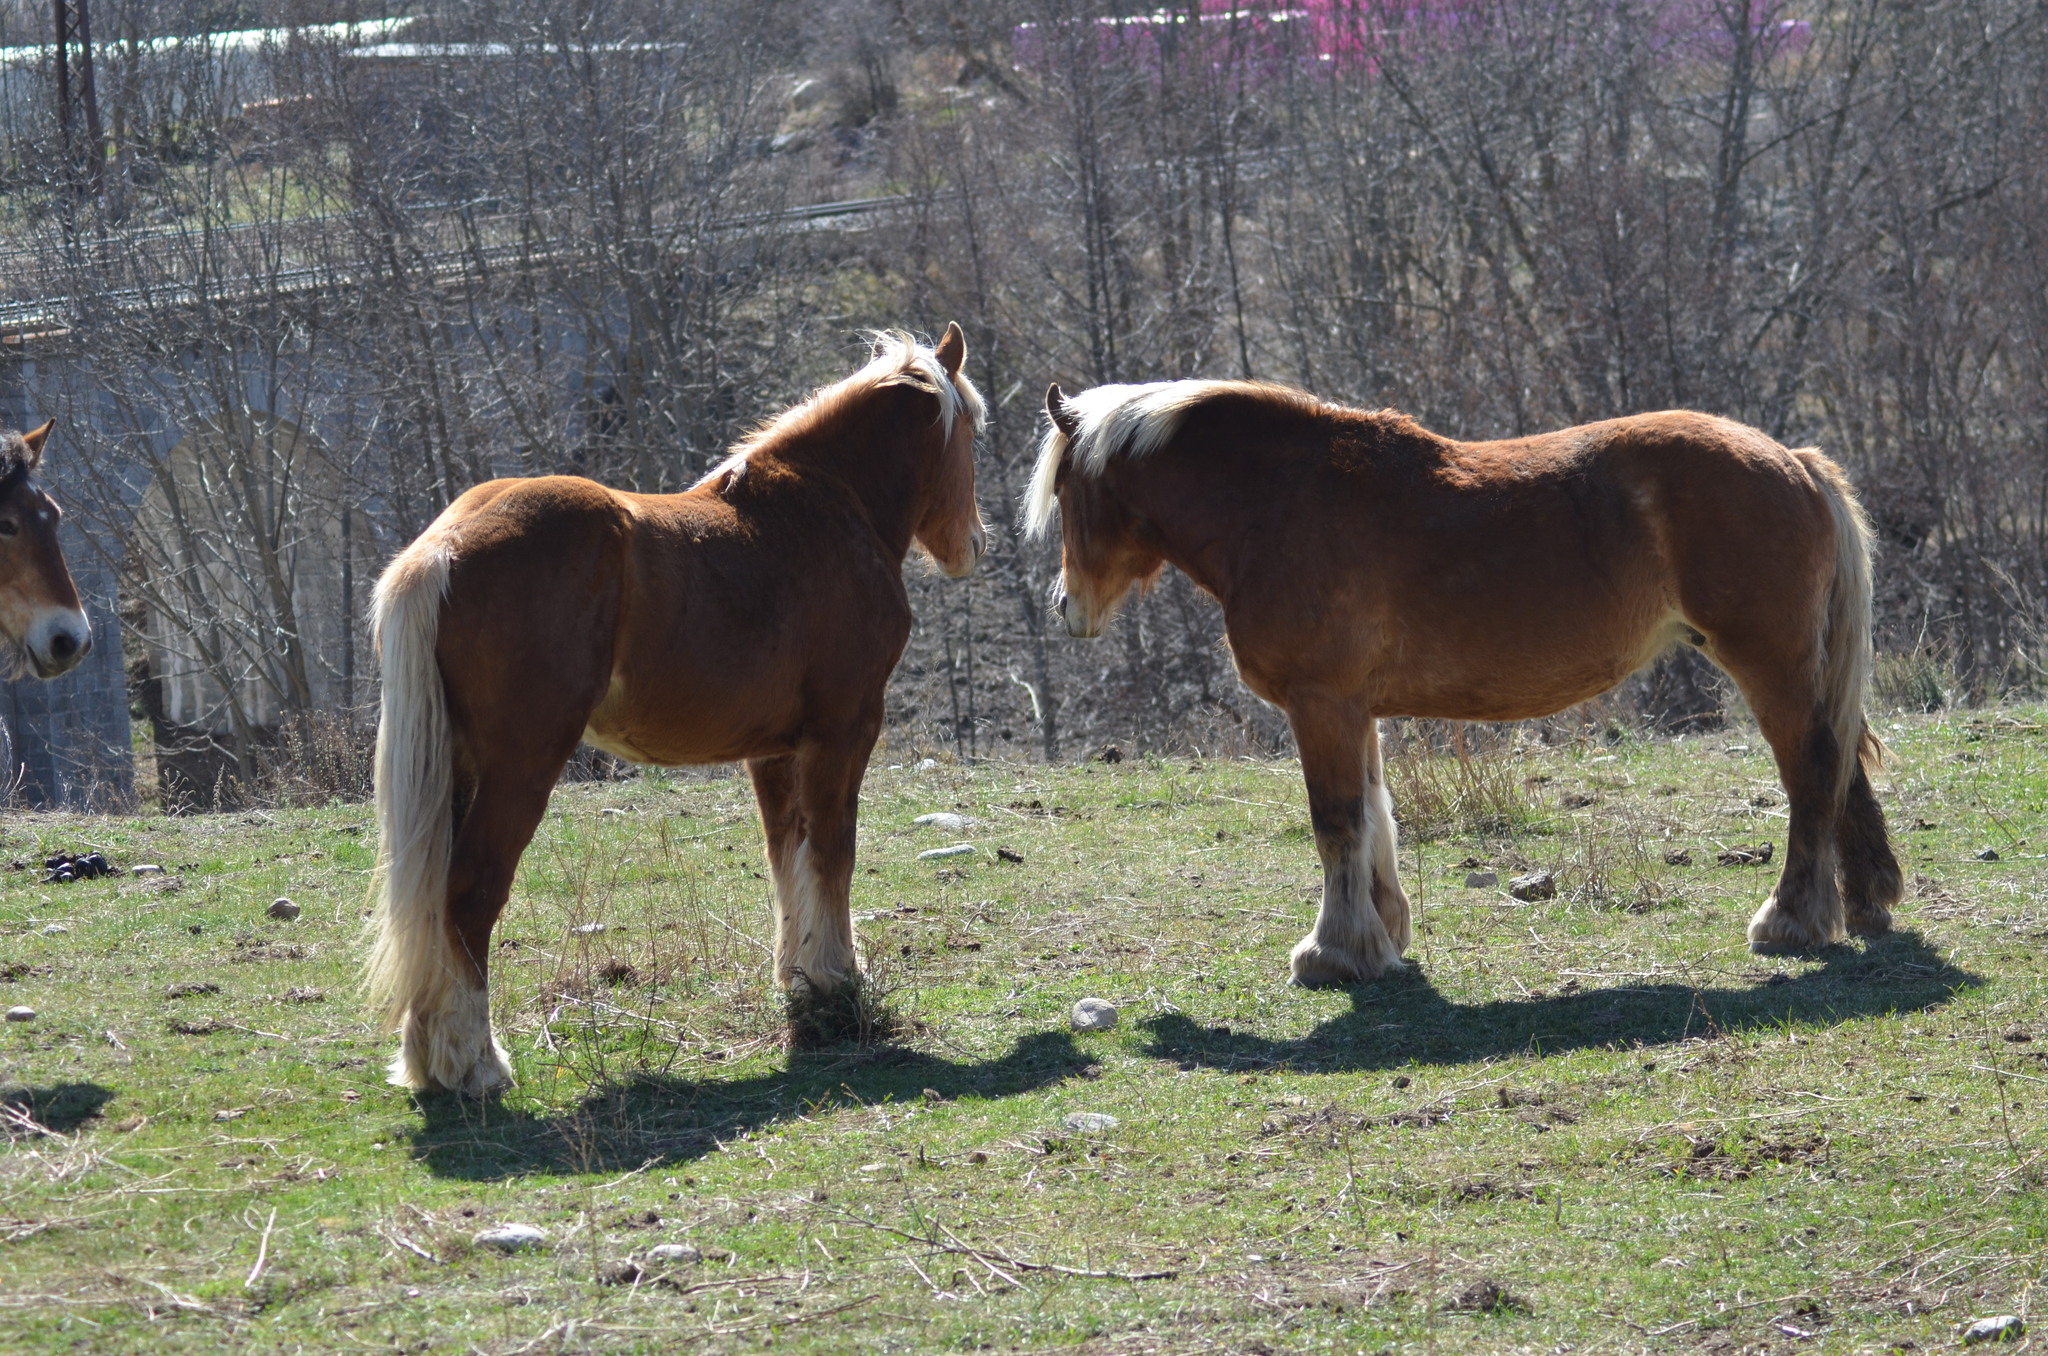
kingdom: Animalia
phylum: Chordata
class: Mammalia
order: Perissodactyla
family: Equidae
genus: Equus
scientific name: Equus caballus
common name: Horse
